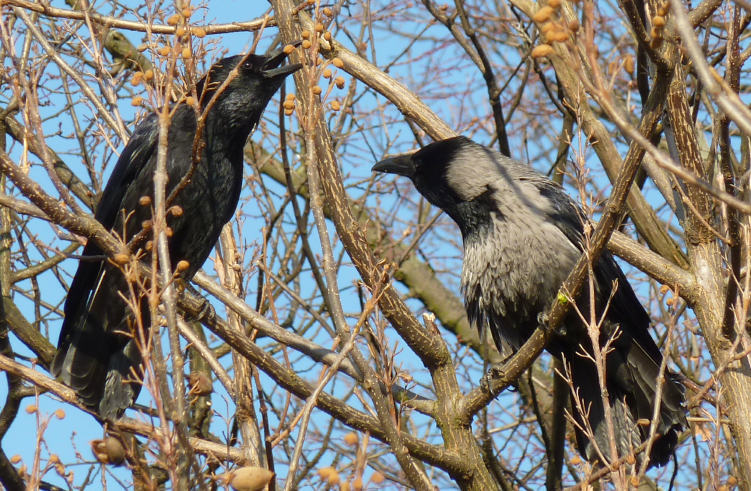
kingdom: Animalia
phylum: Chordata
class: Aves
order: Passeriformes
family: Corvidae
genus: Corvus
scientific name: Corvus
